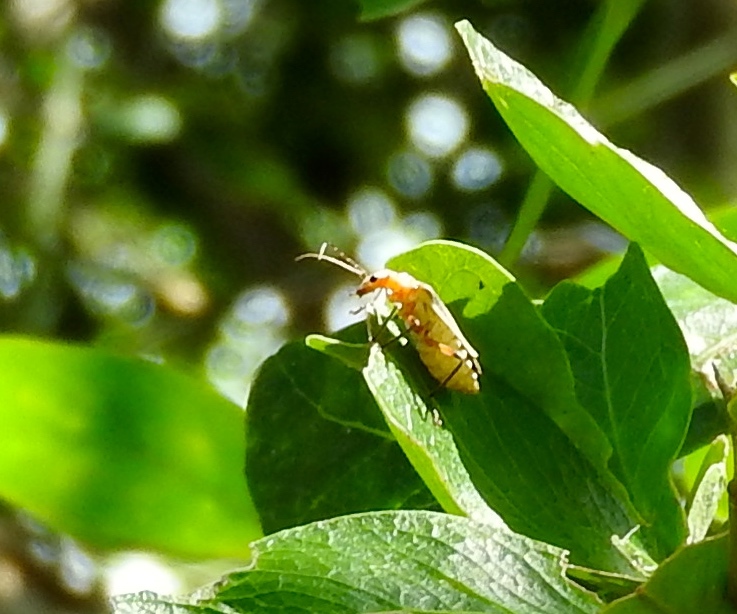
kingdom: Animalia
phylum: Arthropoda
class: Insecta
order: Coleoptera
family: Cantharidae
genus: Chauliognathus
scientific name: Chauliognathus
